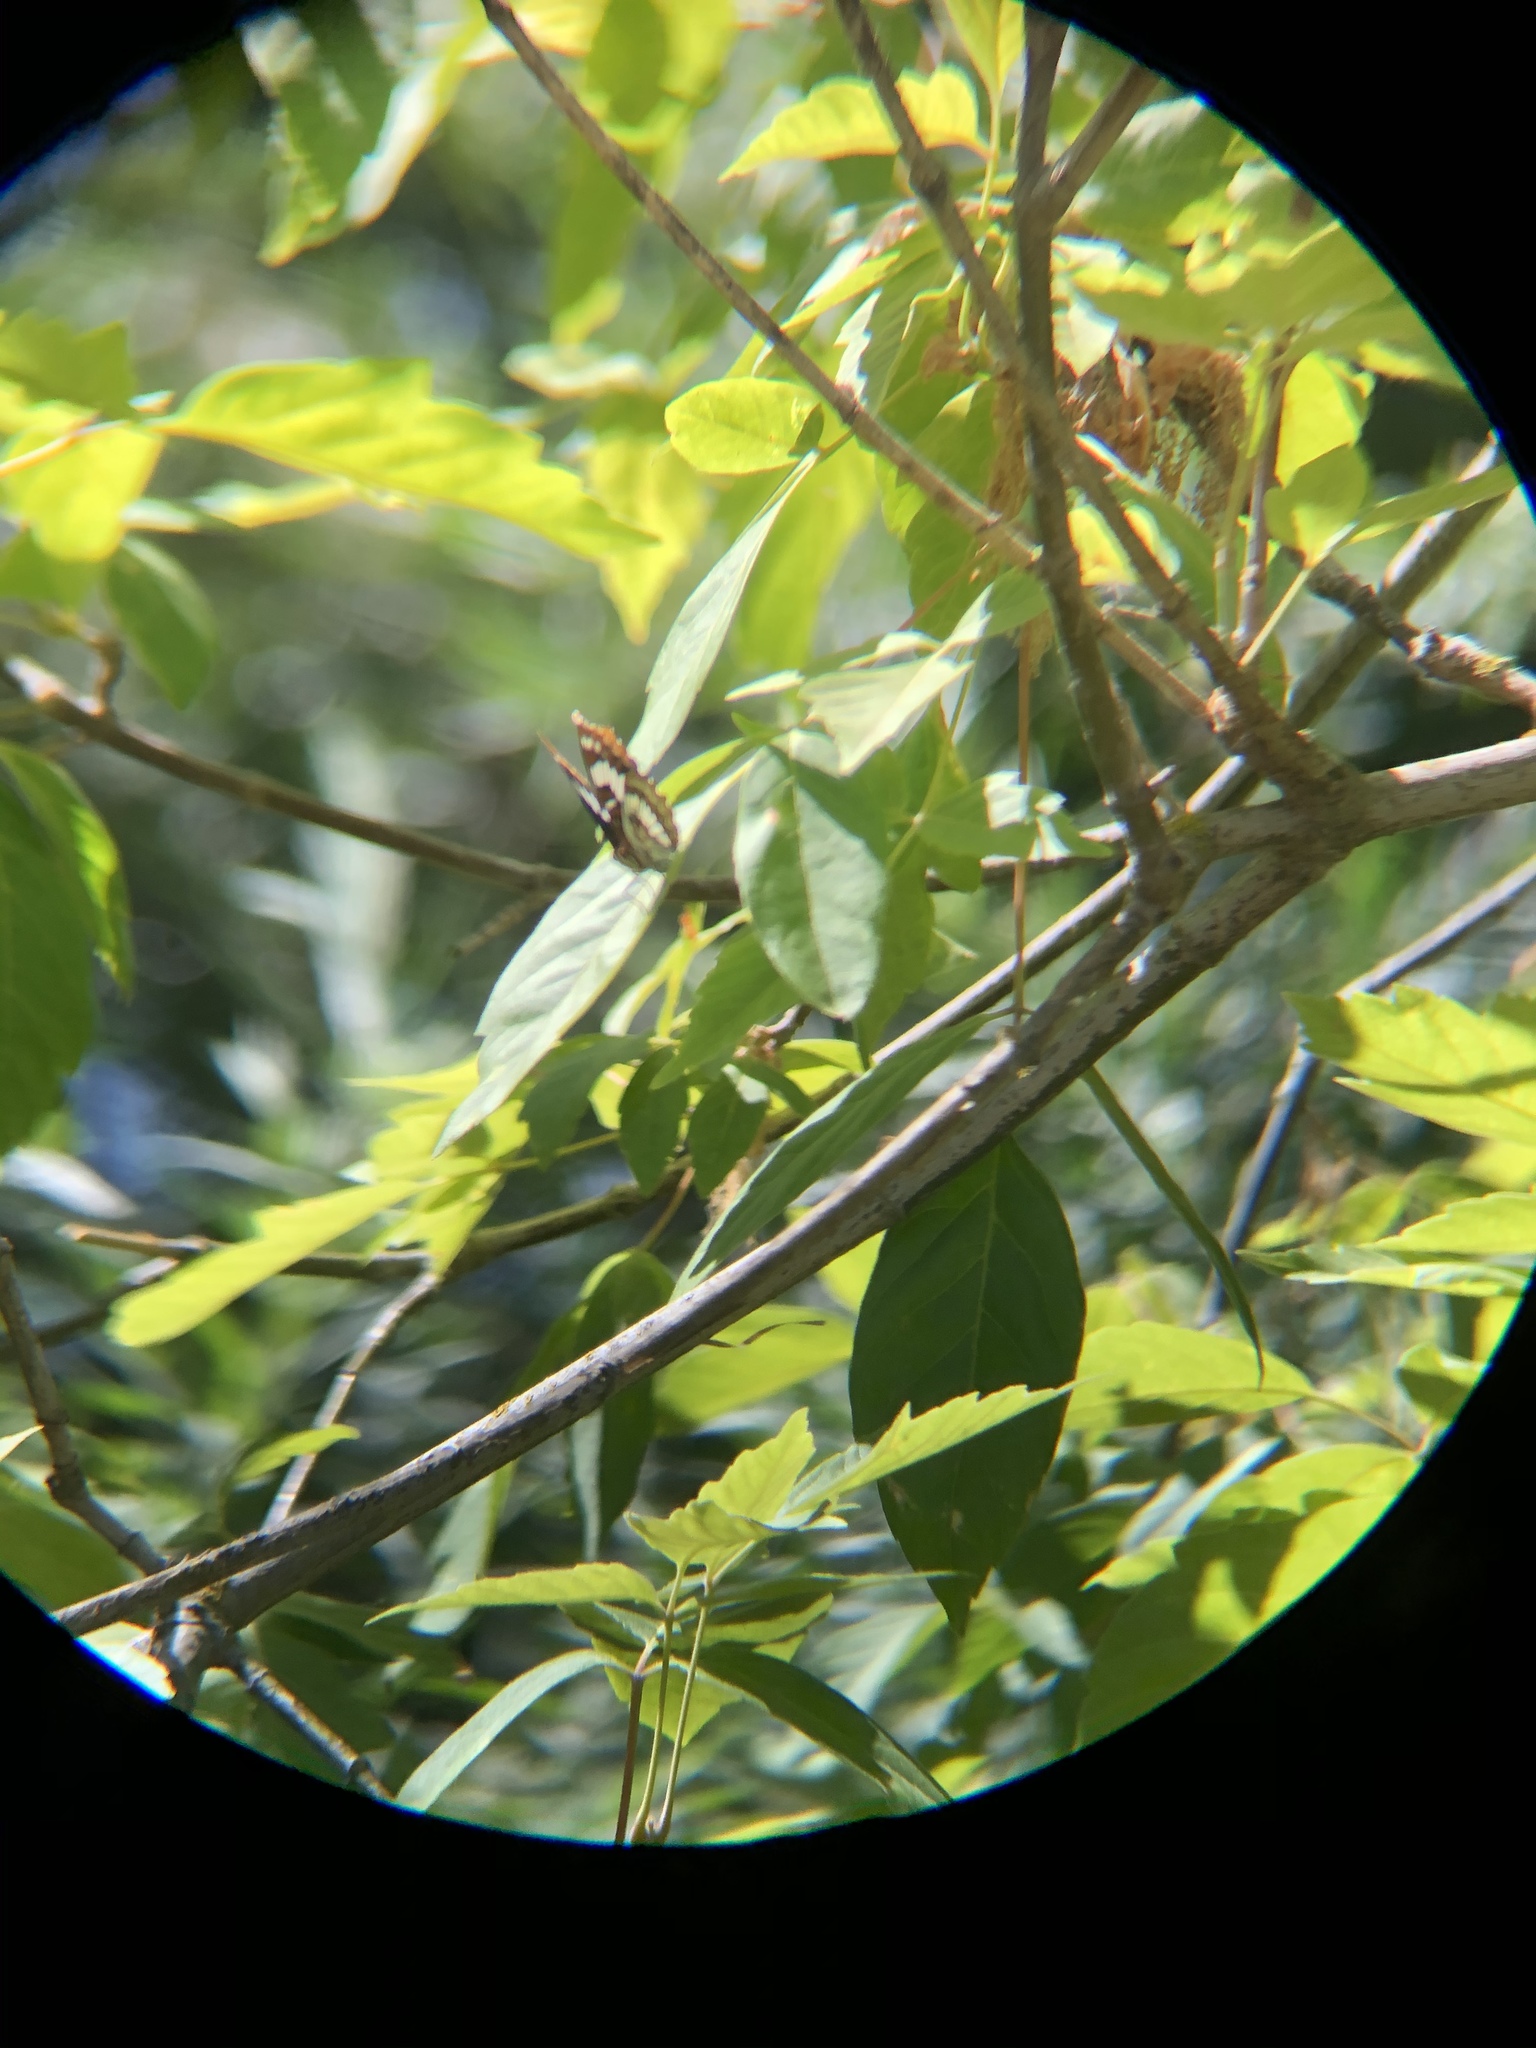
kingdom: Animalia
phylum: Arthropoda
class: Insecta
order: Lepidoptera
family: Nymphalidae
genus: Limenitis
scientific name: Limenitis lorquini
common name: Lorquin's admiral
